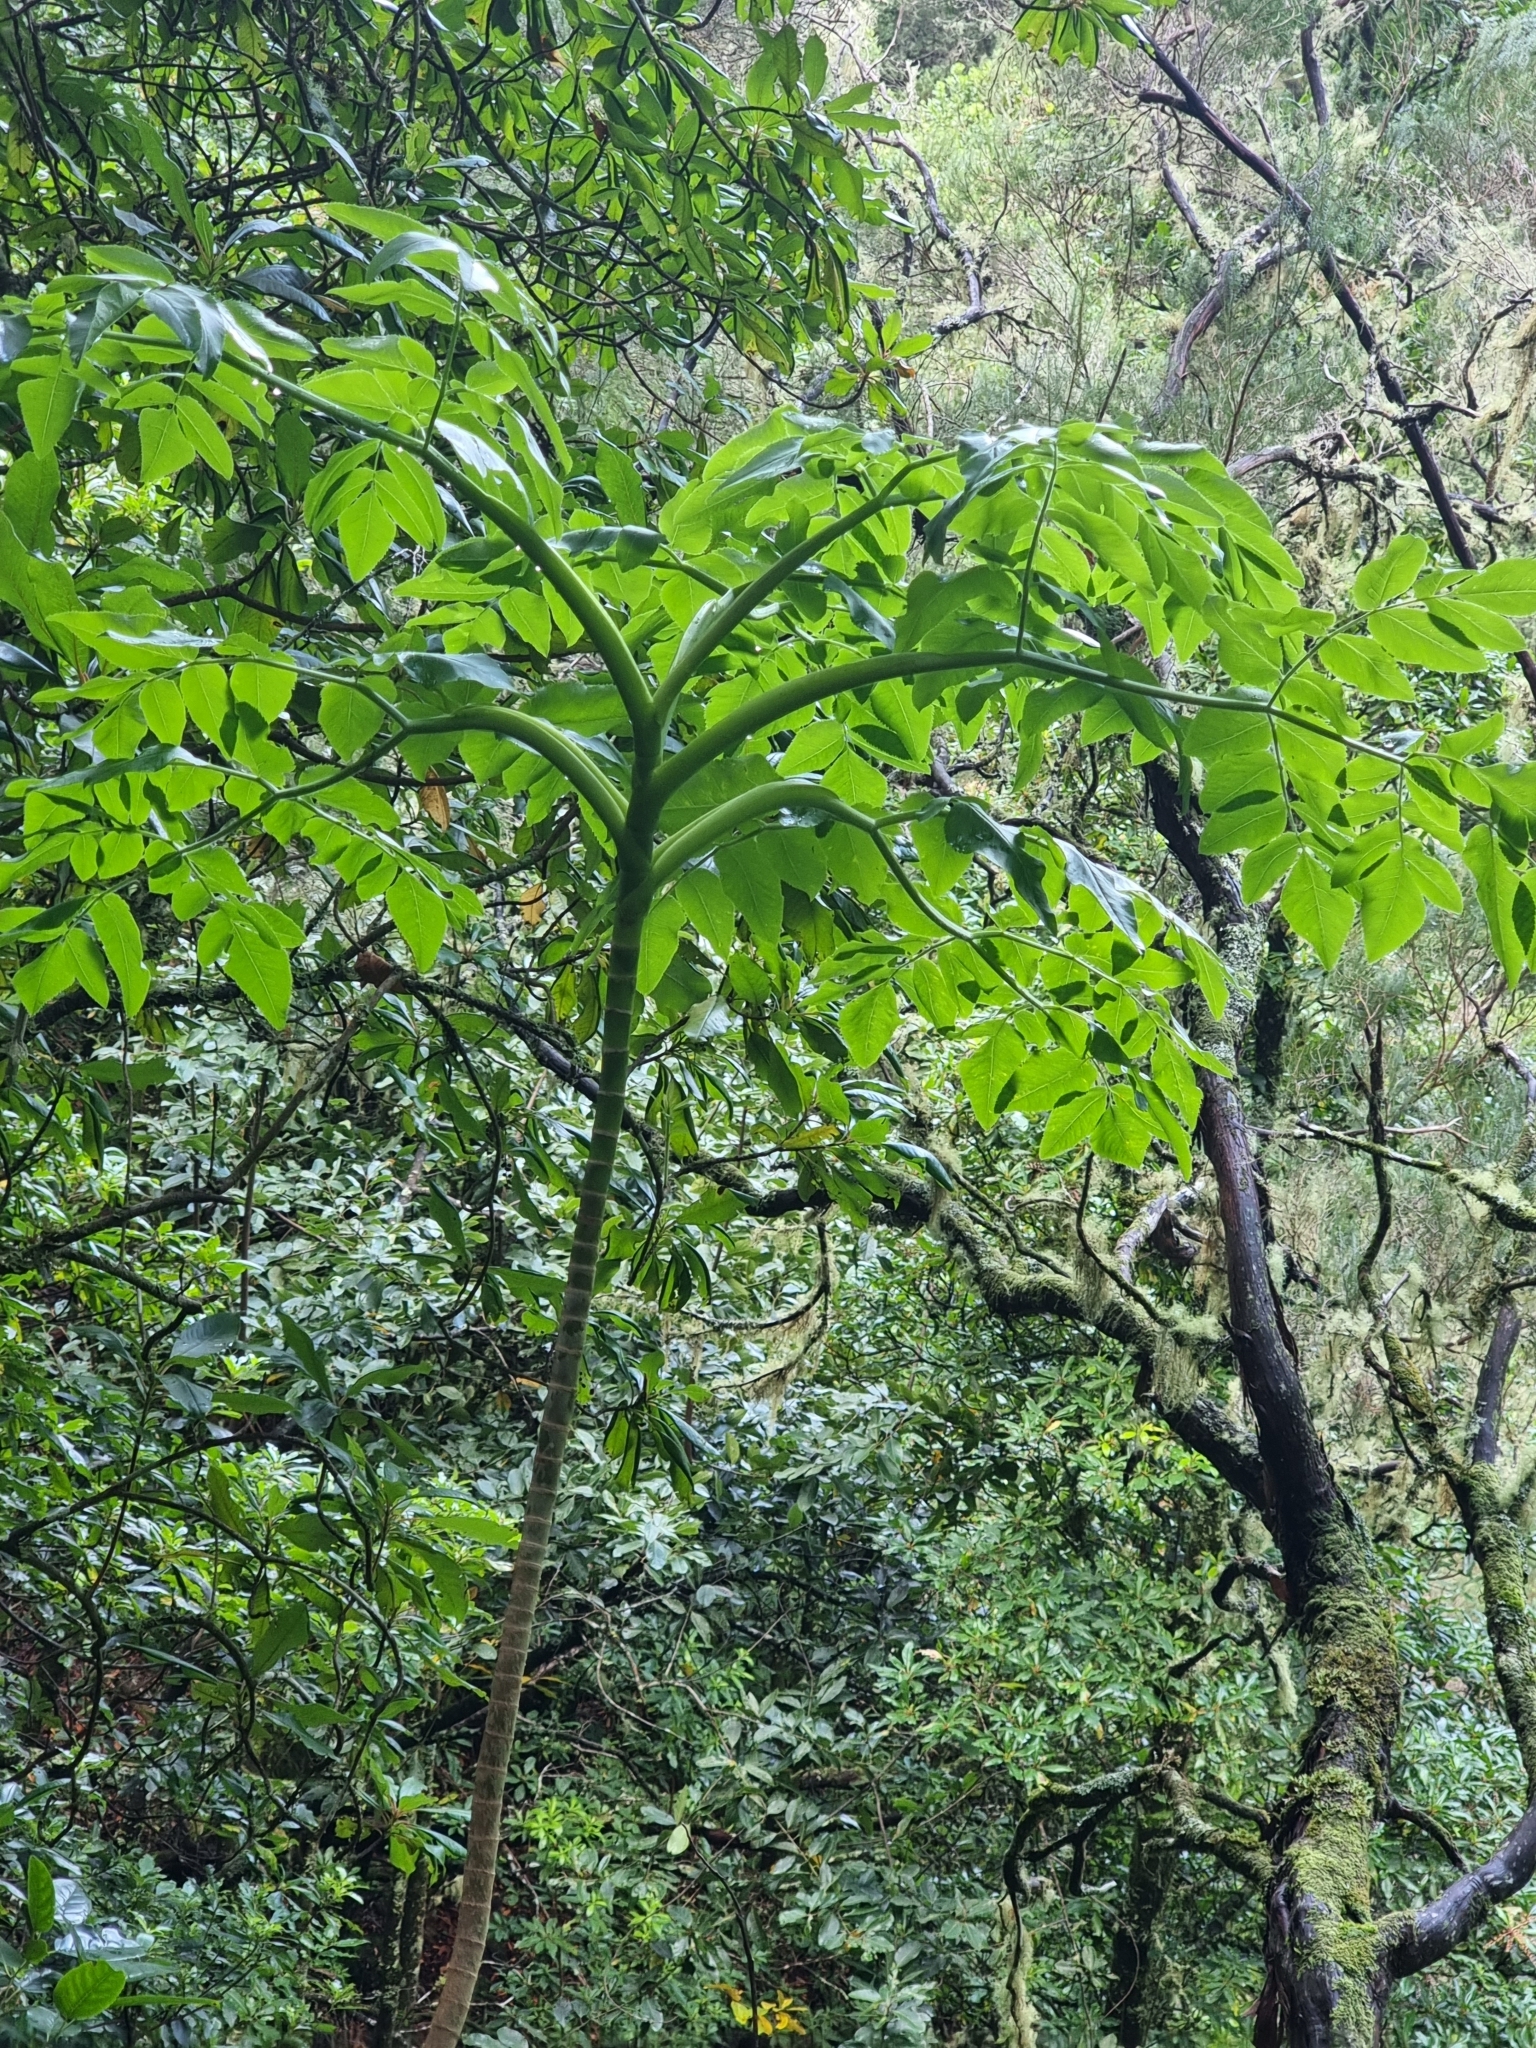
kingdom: Plantae
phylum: Tracheophyta
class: Magnoliopsida
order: Apiales
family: Apiaceae
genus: Daucus
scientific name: Daucus decipiens
